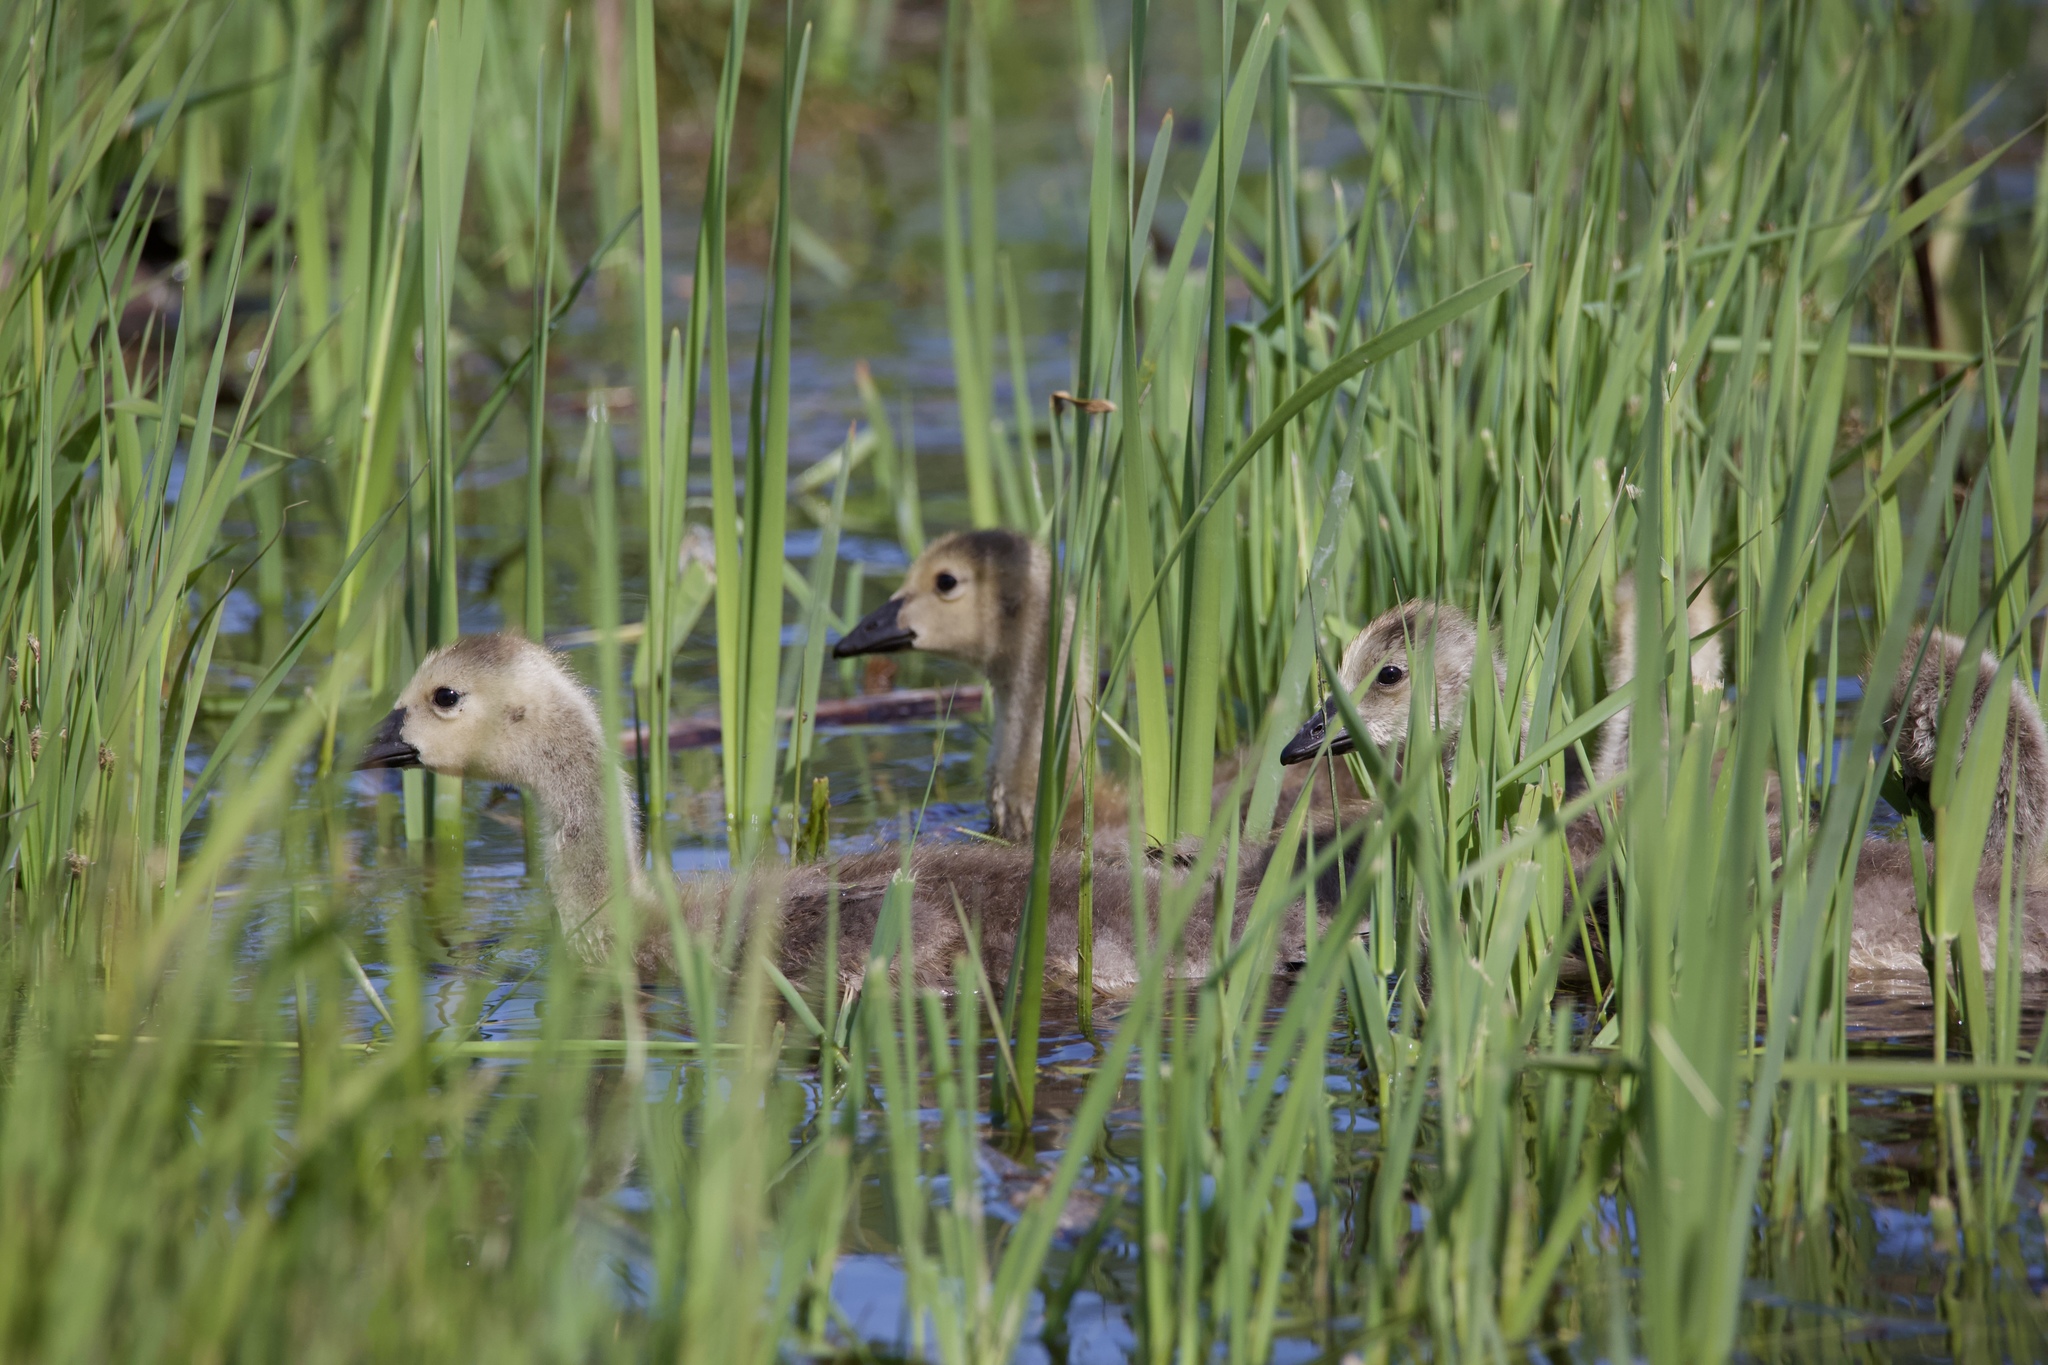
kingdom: Animalia
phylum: Chordata
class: Aves
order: Anseriformes
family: Anatidae
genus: Branta
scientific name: Branta canadensis
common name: Canada goose
